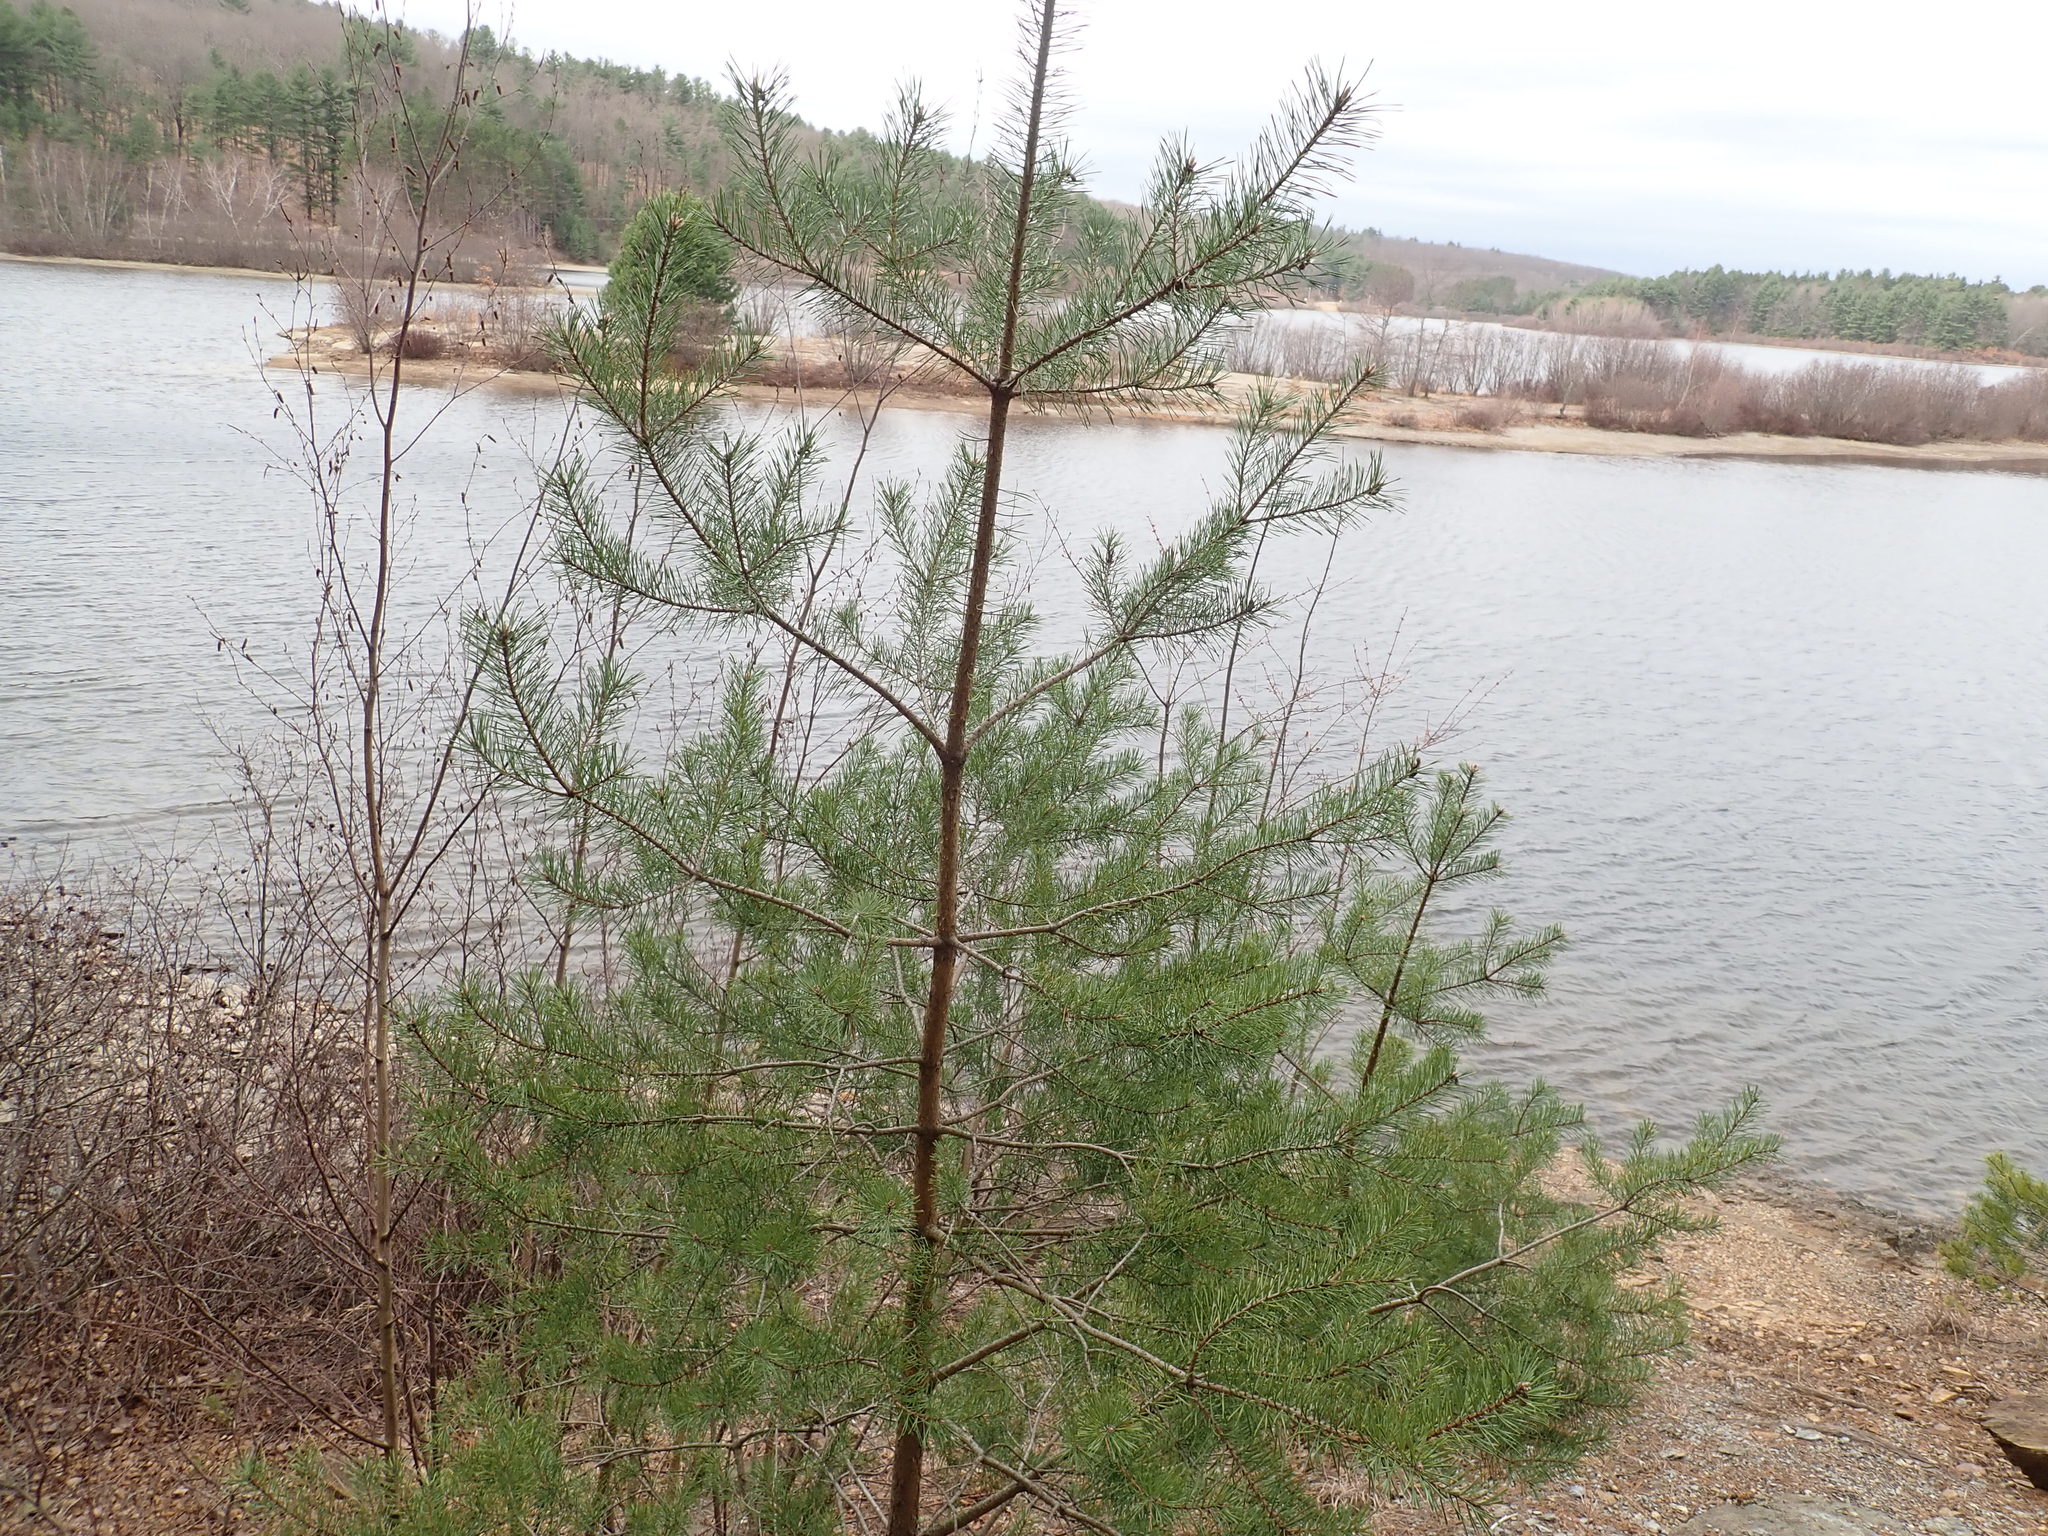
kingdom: Plantae
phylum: Tracheophyta
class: Pinopsida
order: Pinales
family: Pinaceae
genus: Pinus
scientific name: Pinus sylvestris
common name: Scots pine
